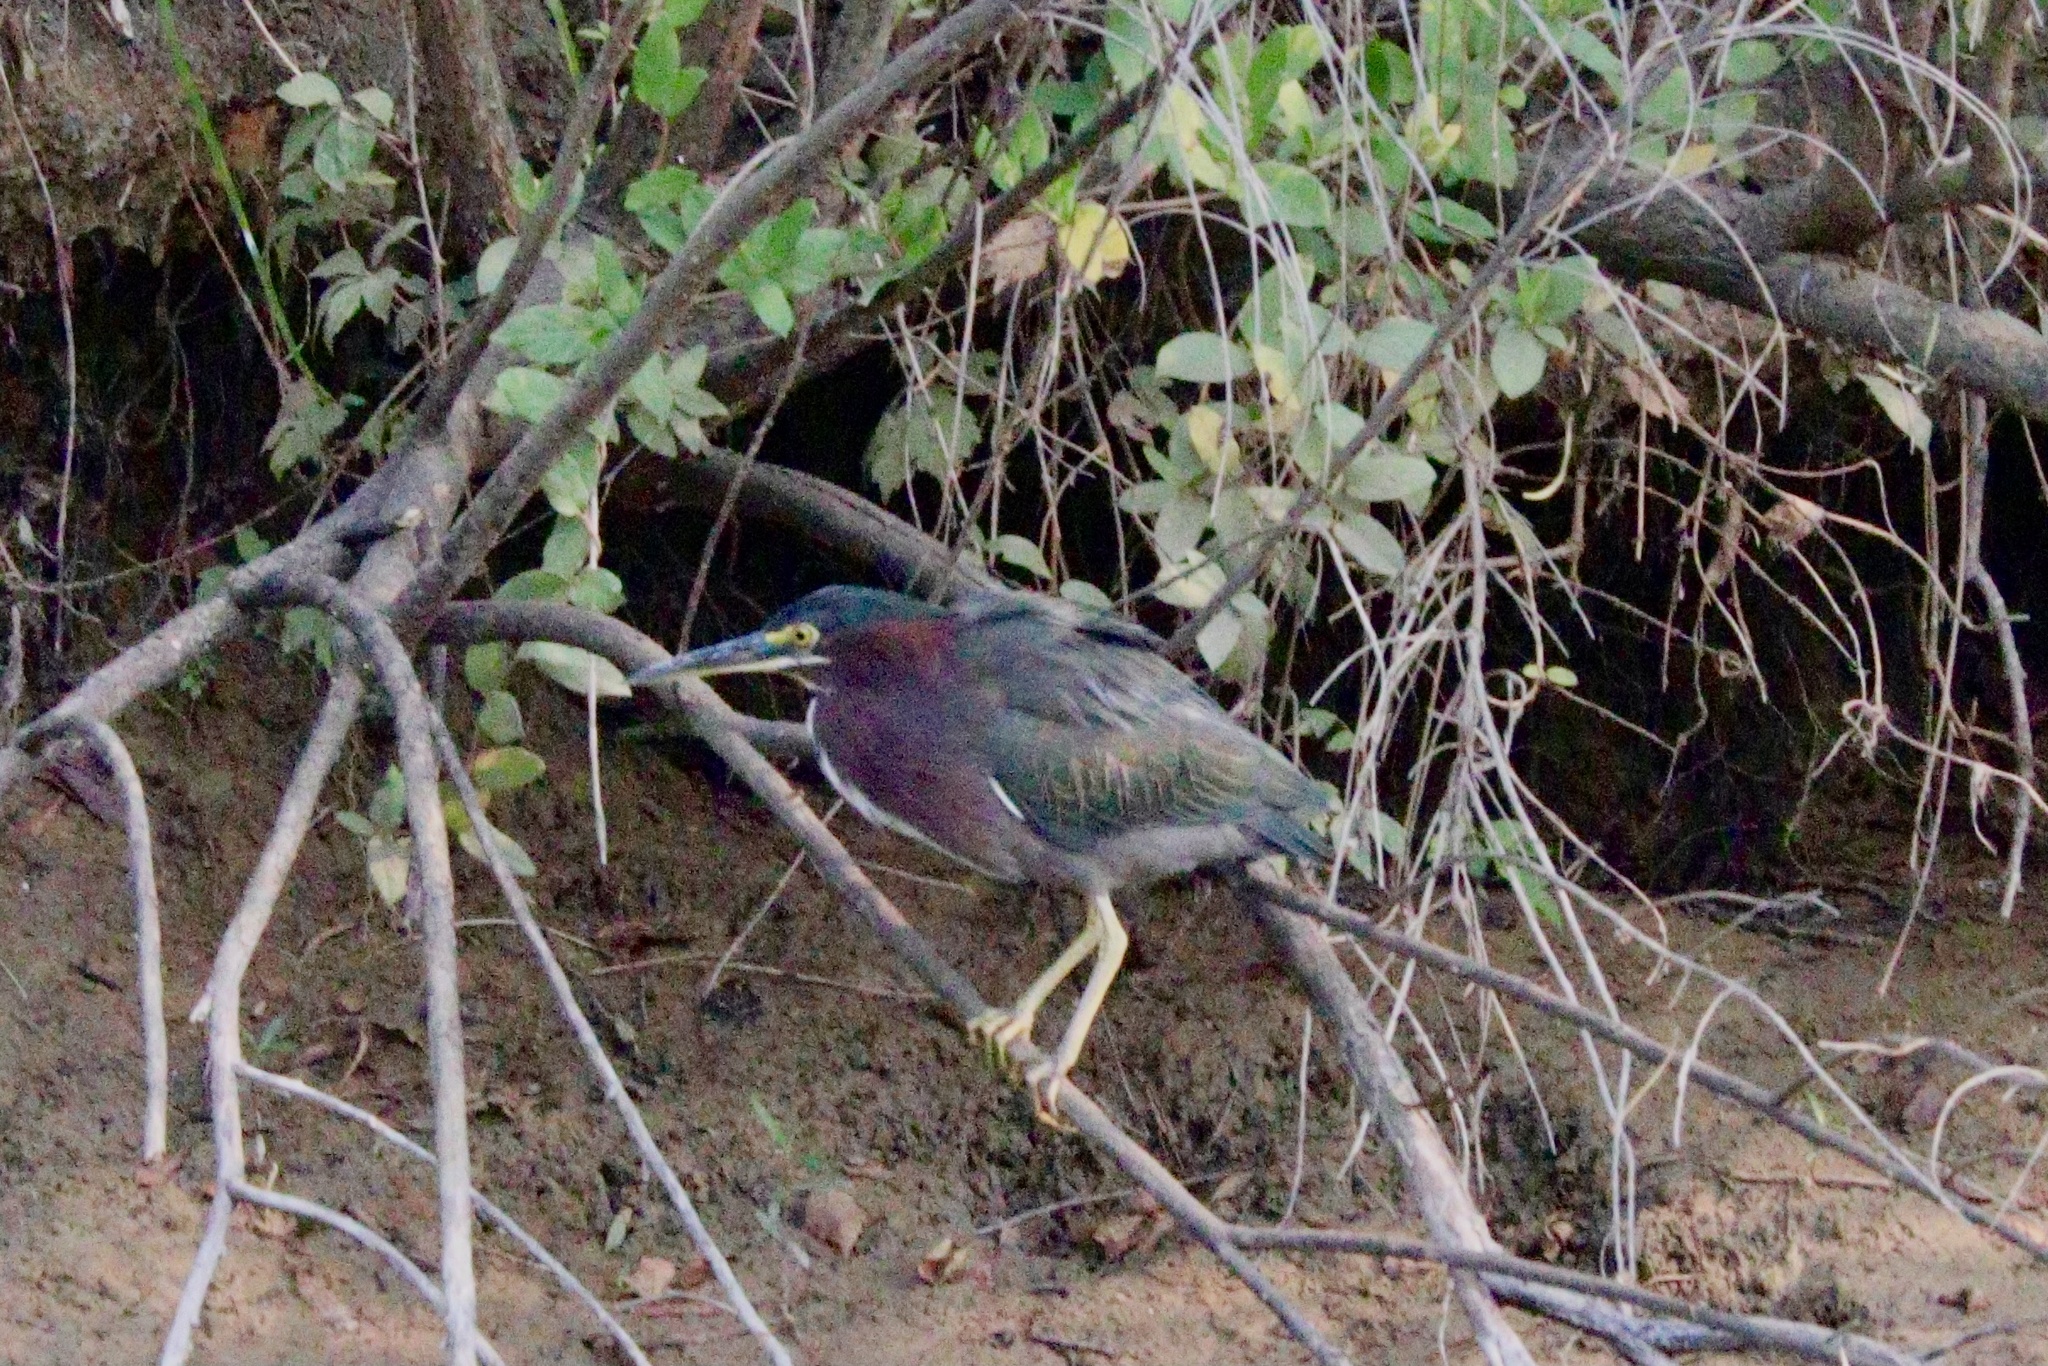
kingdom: Animalia
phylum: Chordata
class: Aves
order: Pelecaniformes
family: Ardeidae
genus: Butorides
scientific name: Butorides virescens
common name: Green heron
